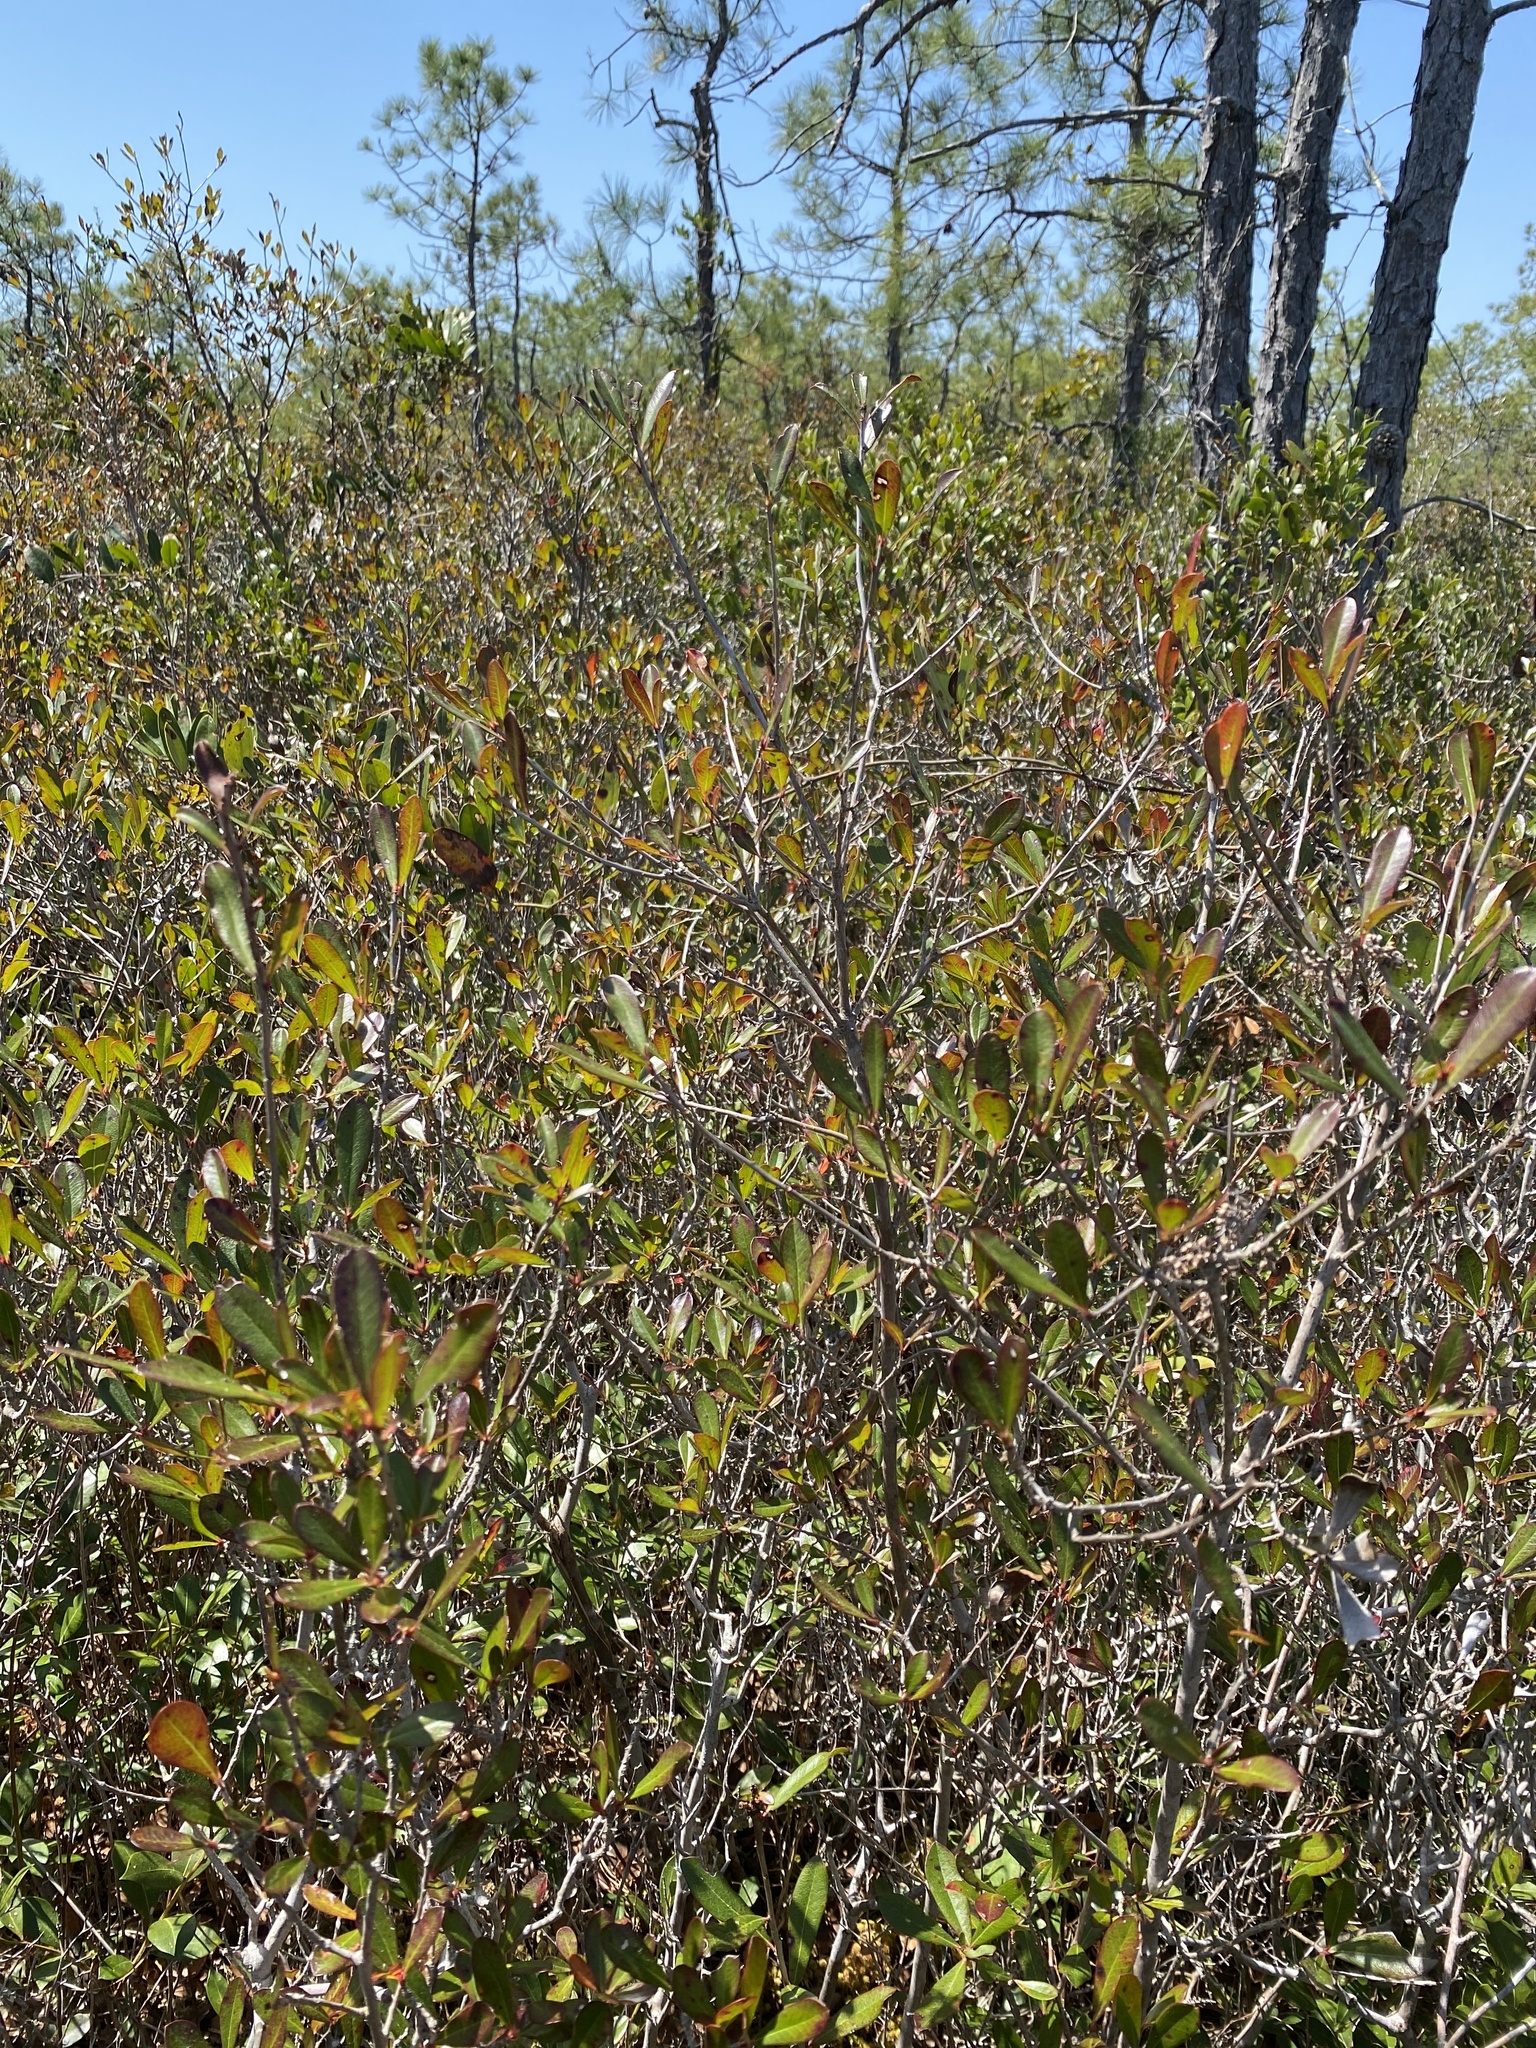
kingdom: Plantae
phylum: Tracheophyta
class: Magnoliopsida
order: Ericales
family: Cyrillaceae
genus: Cyrilla
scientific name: Cyrilla racemiflora
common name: Black titi
